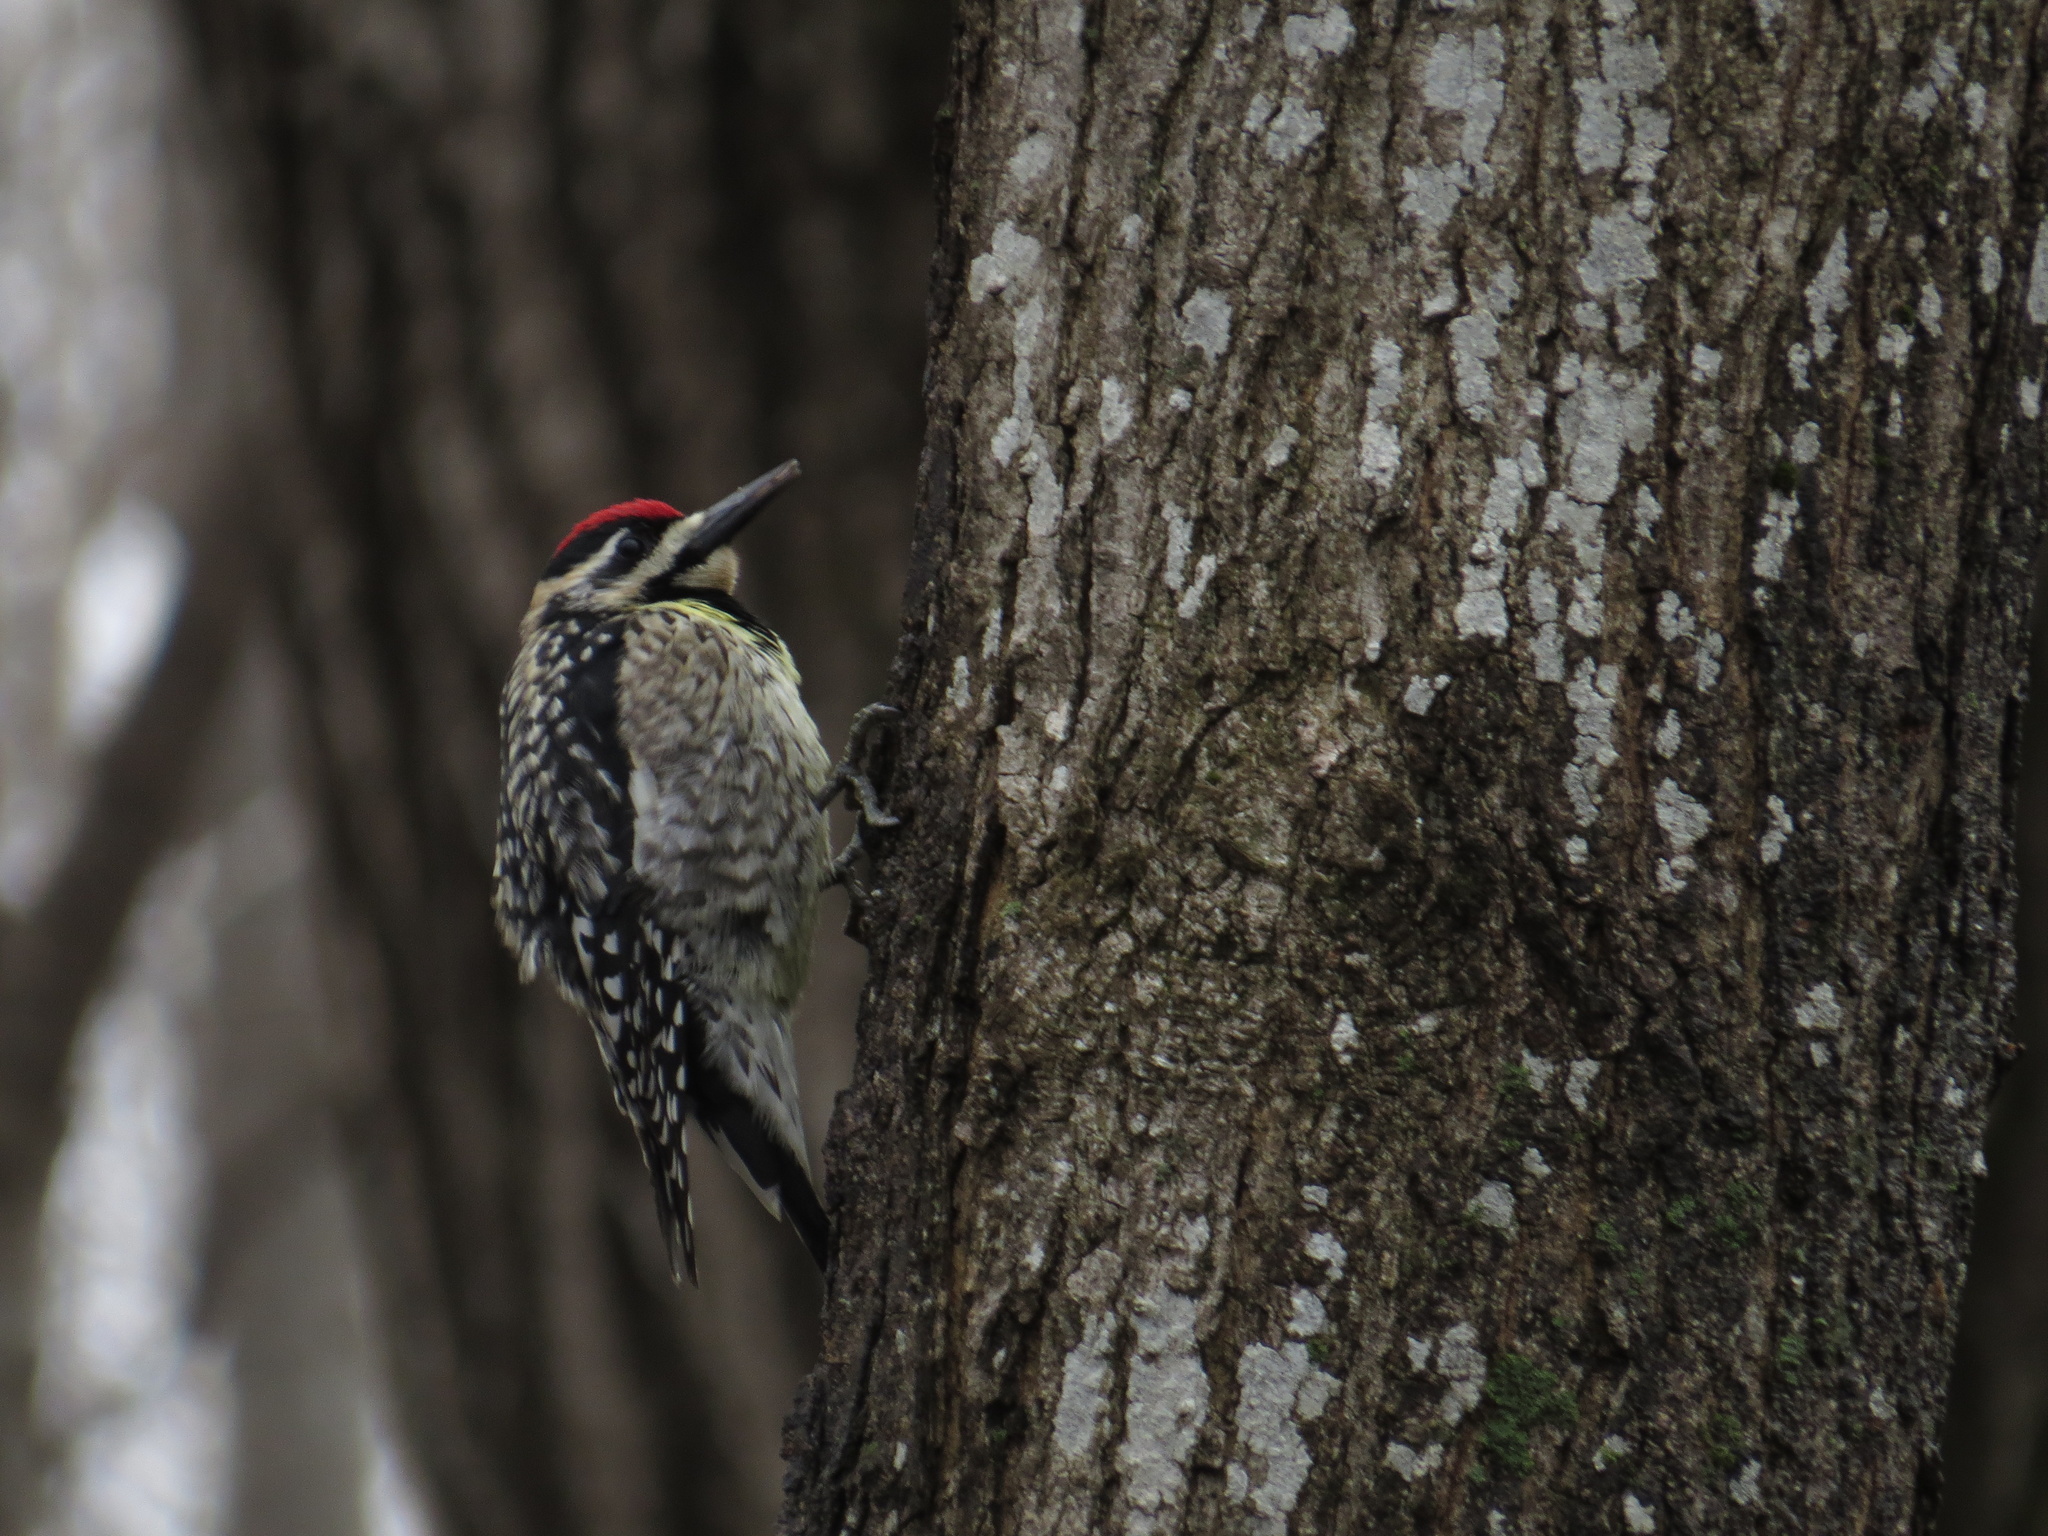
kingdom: Animalia
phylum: Chordata
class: Aves
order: Piciformes
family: Picidae
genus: Sphyrapicus
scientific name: Sphyrapicus varius
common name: Yellow-bellied sapsucker
